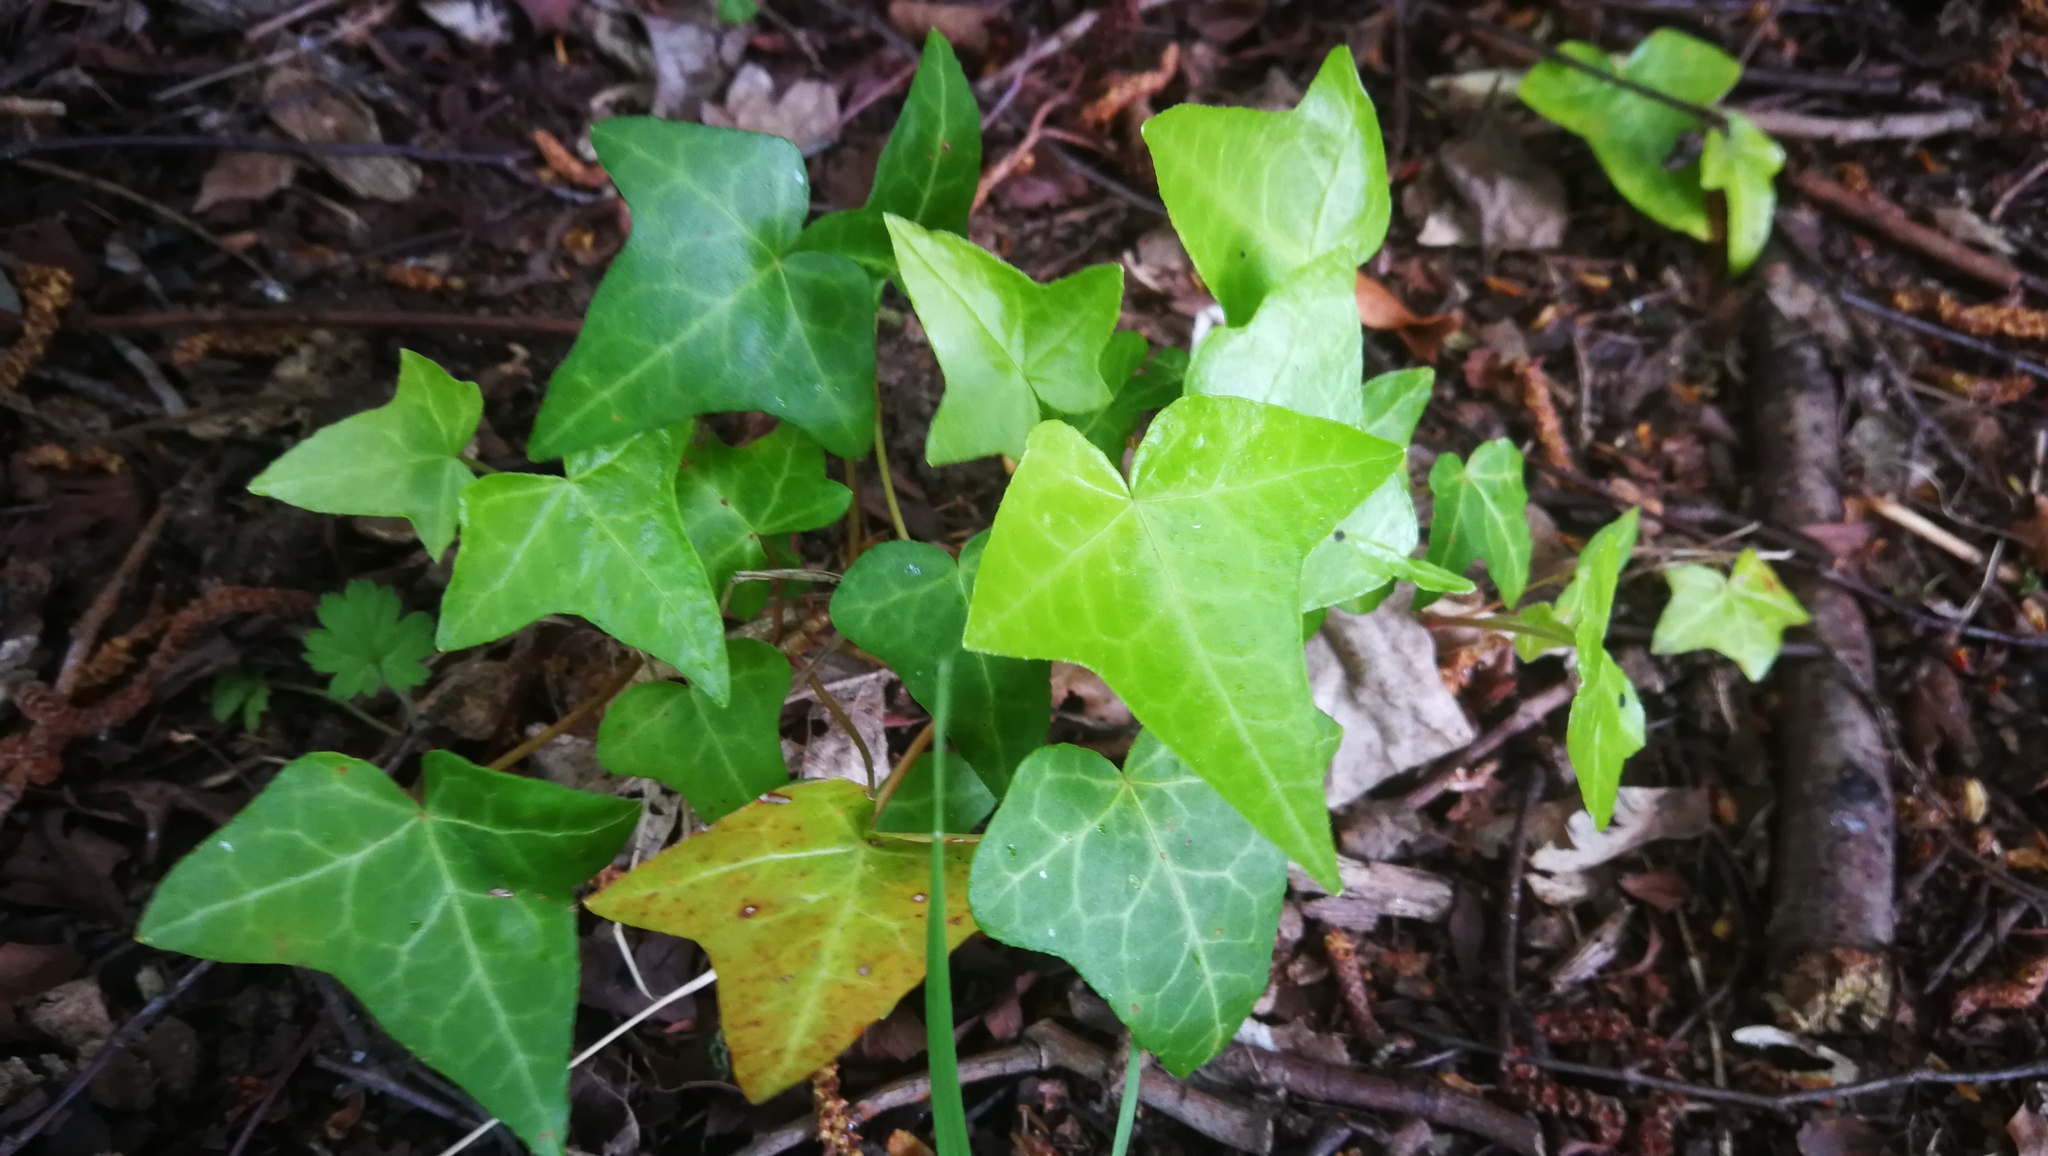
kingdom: Plantae
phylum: Tracheophyta
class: Magnoliopsida
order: Apiales
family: Araliaceae
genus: Hedera
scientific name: Hedera helix
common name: Ivy
